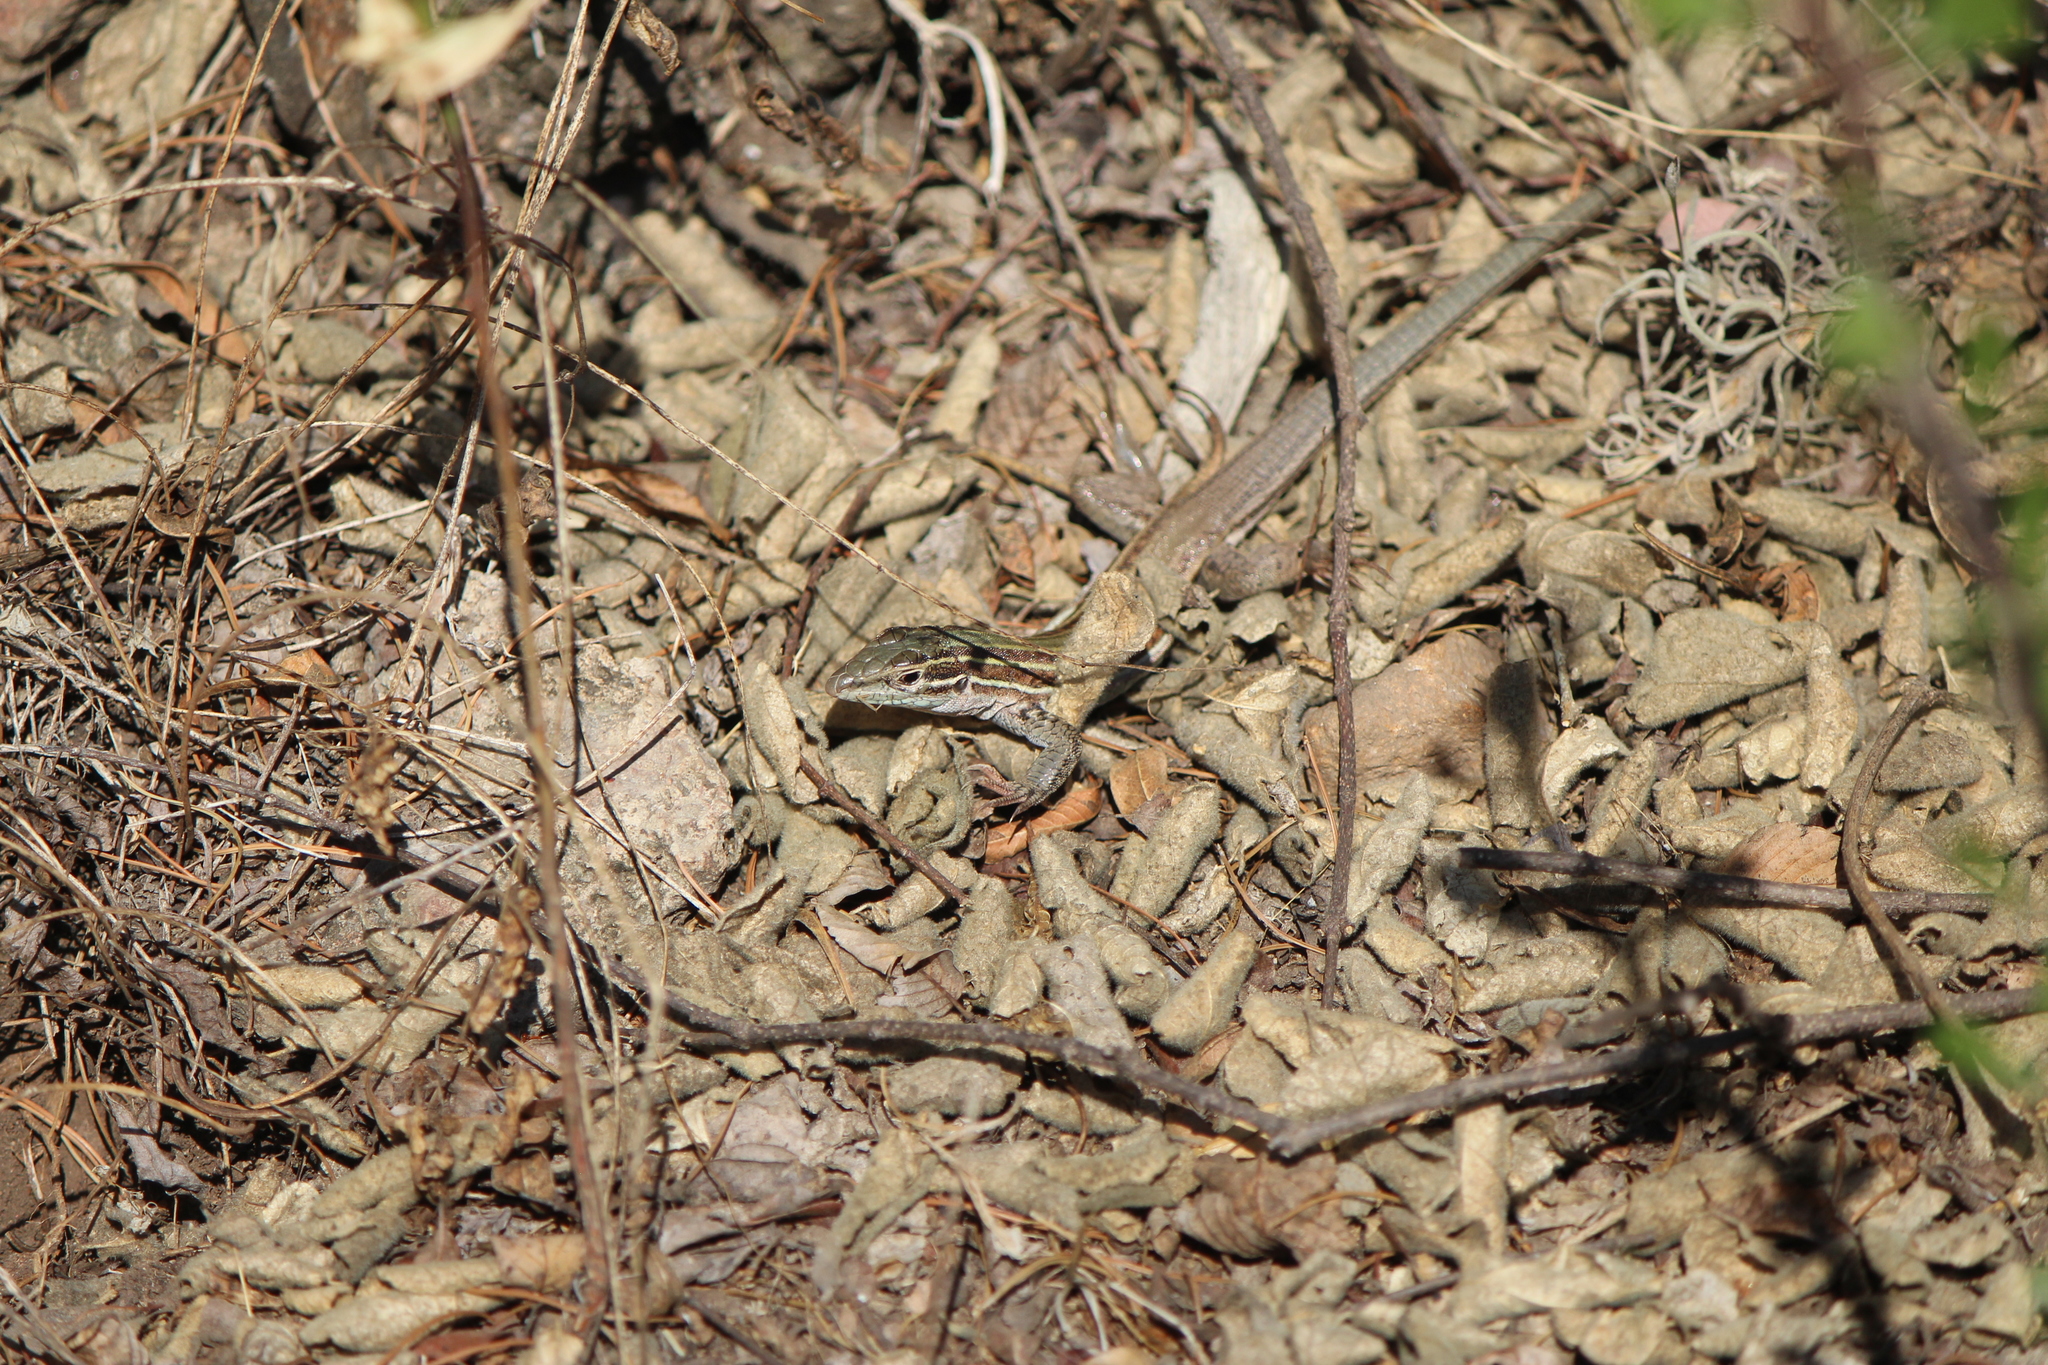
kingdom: Animalia
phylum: Chordata
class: Squamata
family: Teiidae
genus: Aspidoscelis
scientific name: Aspidoscelis gularis
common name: Eastern spotted whiptail
